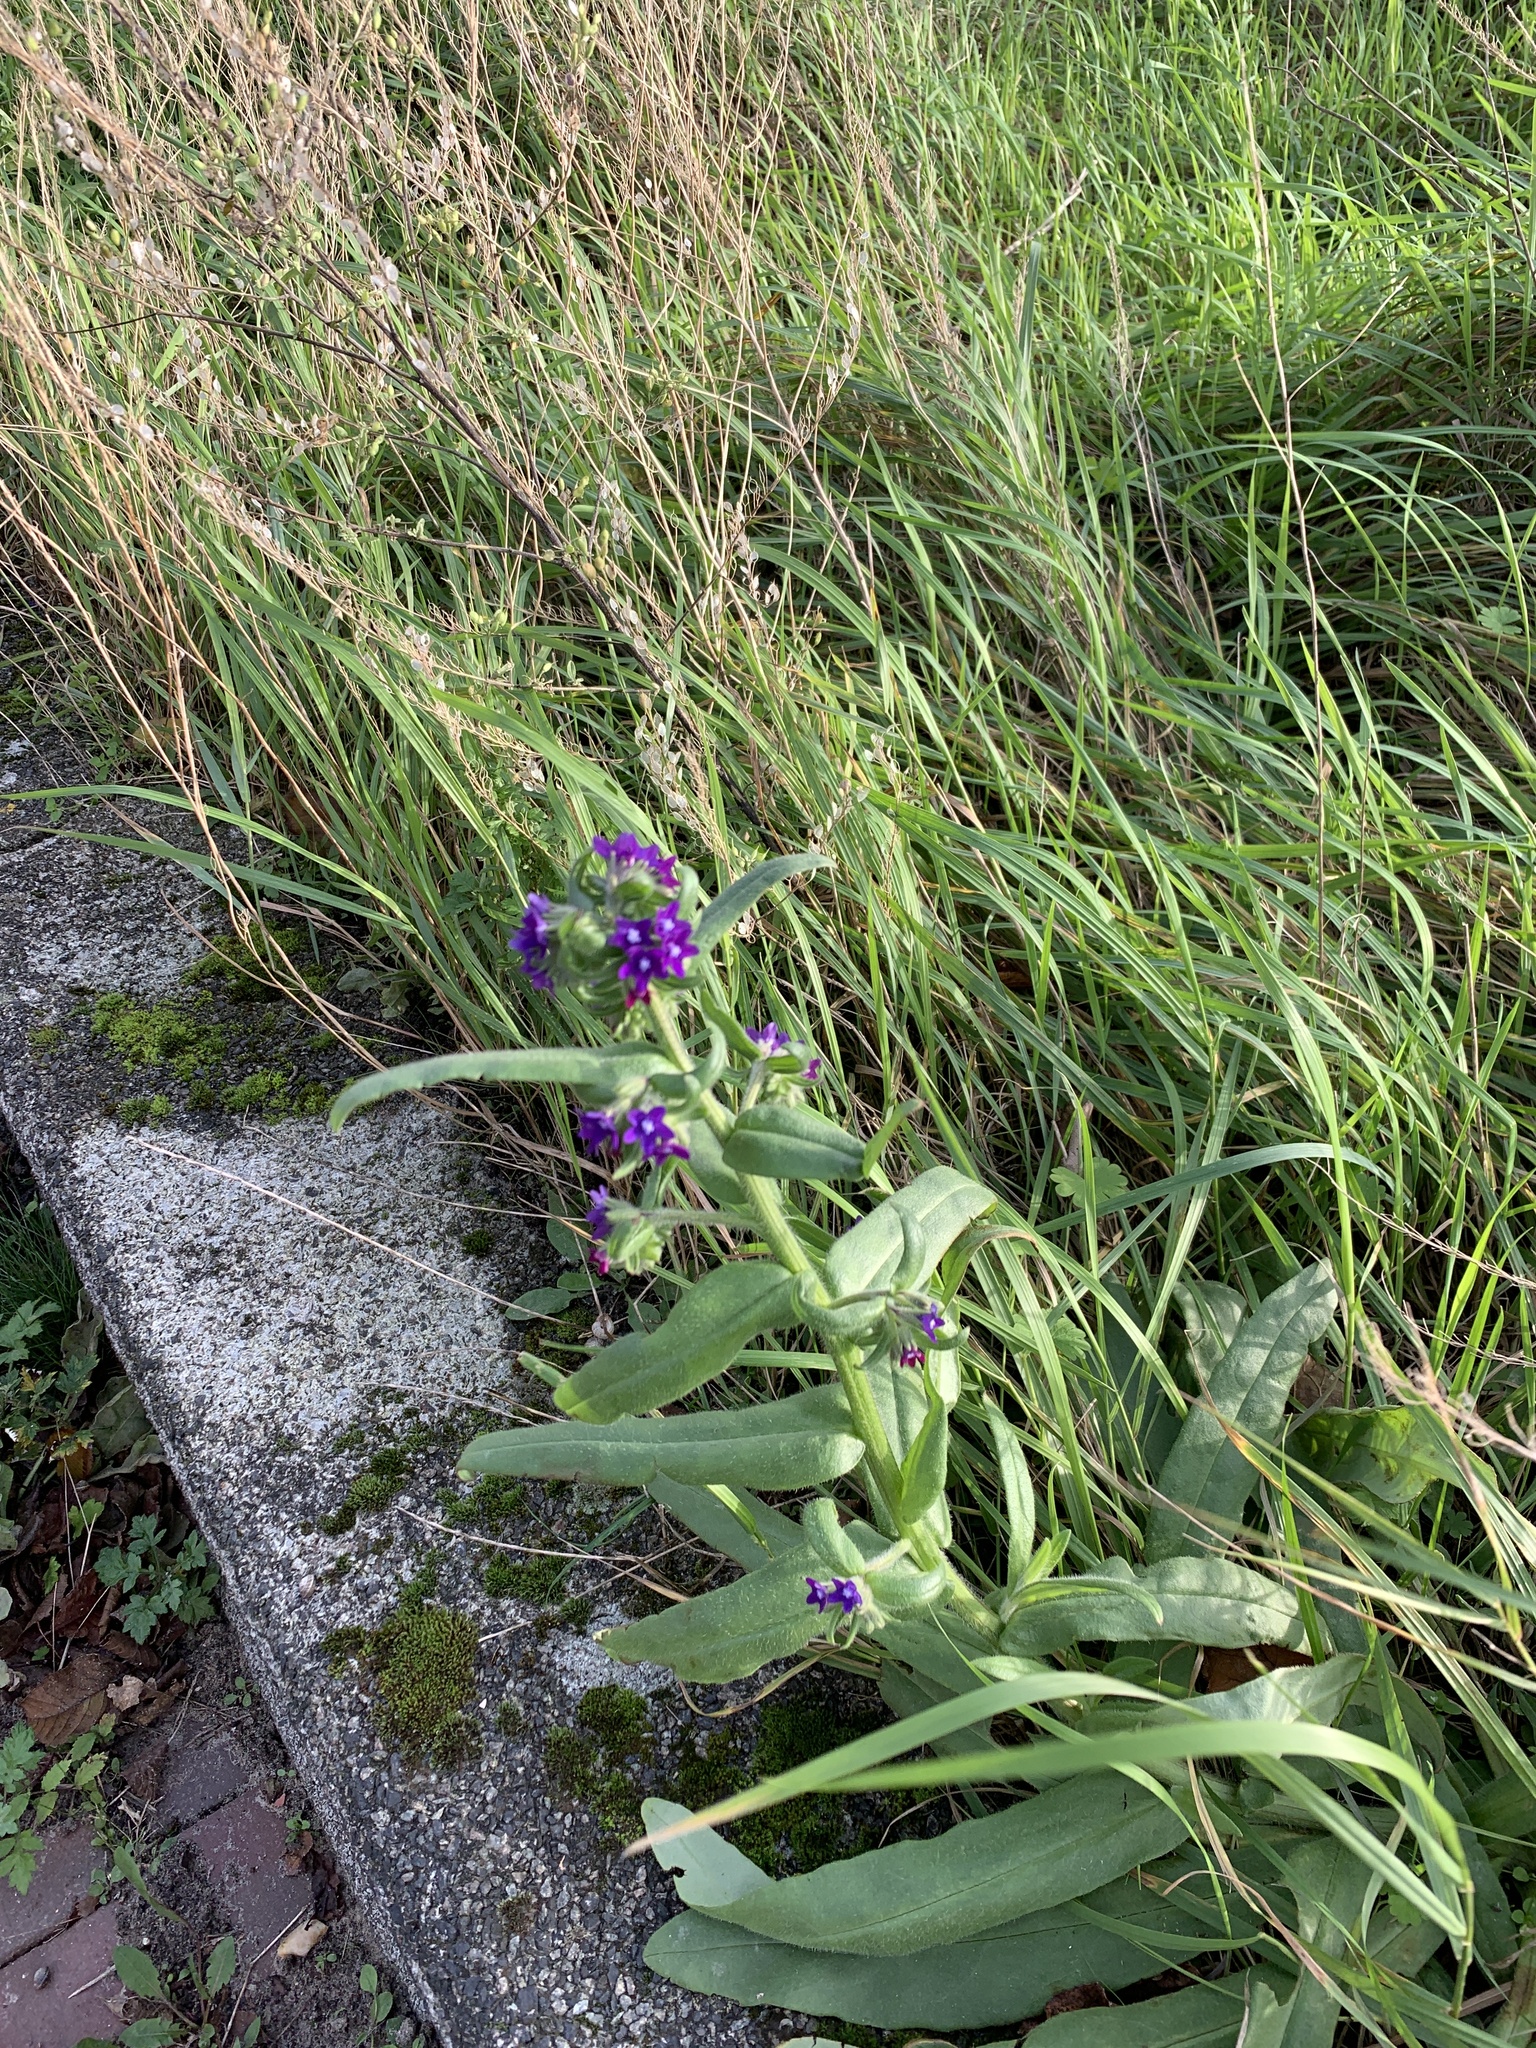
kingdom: Plantae
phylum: Tracheophyta
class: Magnoliopsida
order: Boraginales
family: Boraginaceae
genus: Anchusa
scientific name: Anchusa officinalis
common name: Alkanet
